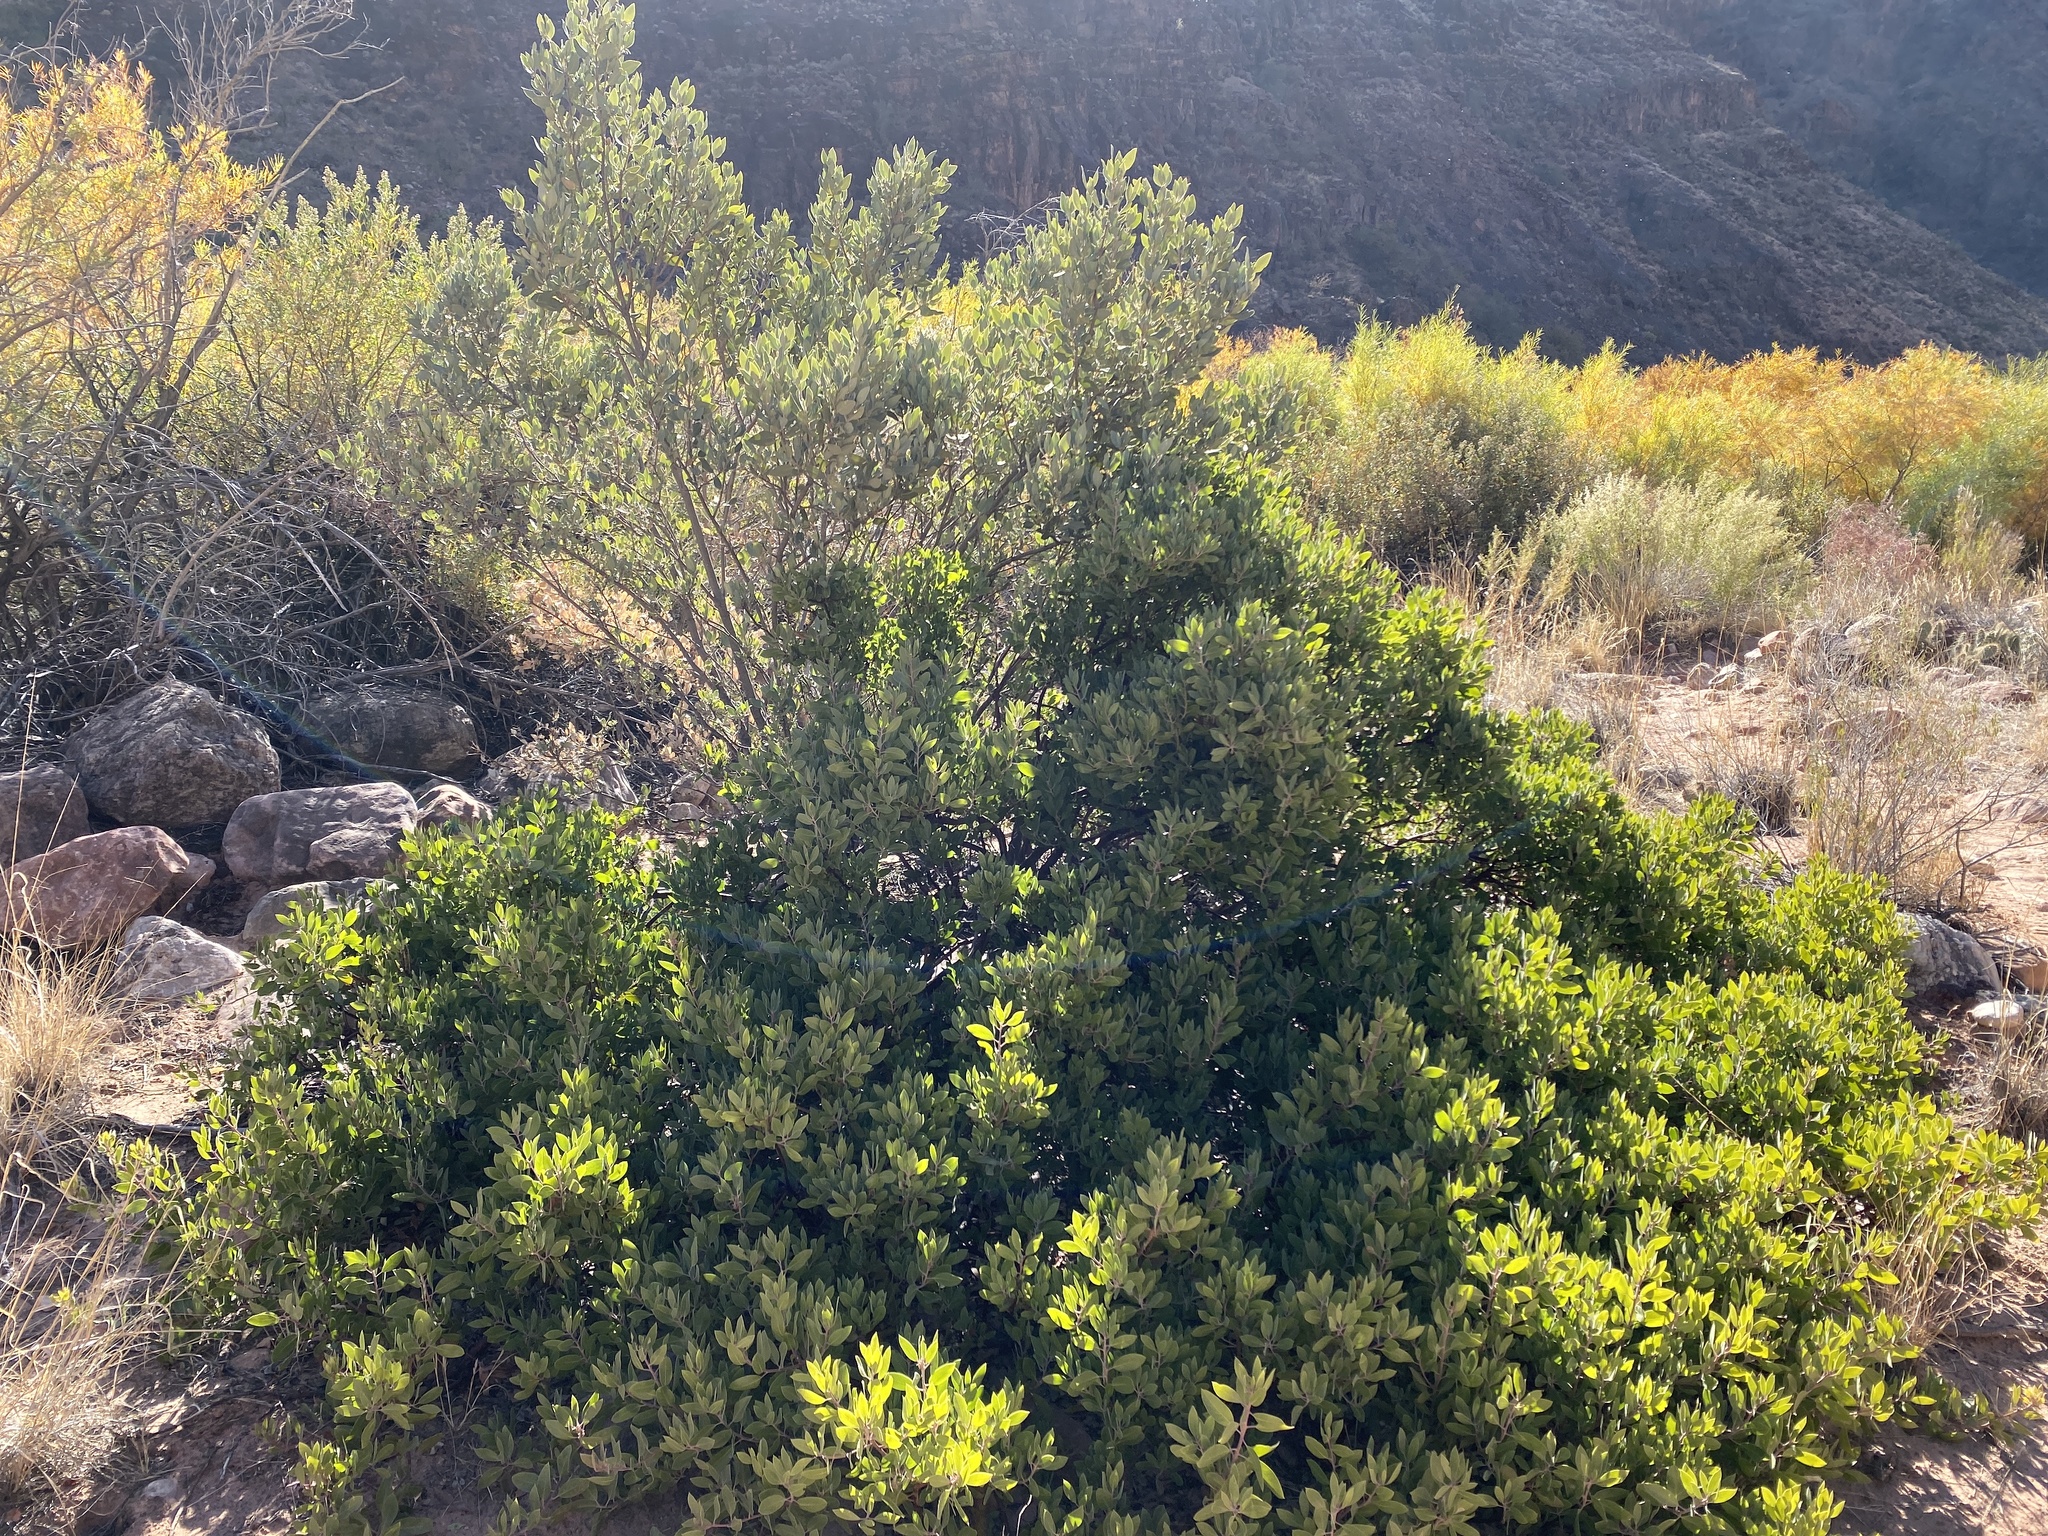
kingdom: Plantae
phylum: Tracheophyta
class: Magnoliopsida
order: Ericales
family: Ericaceae
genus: Arctostaphylos
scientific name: Arctostaphylos pungens
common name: Mexican manzanita
